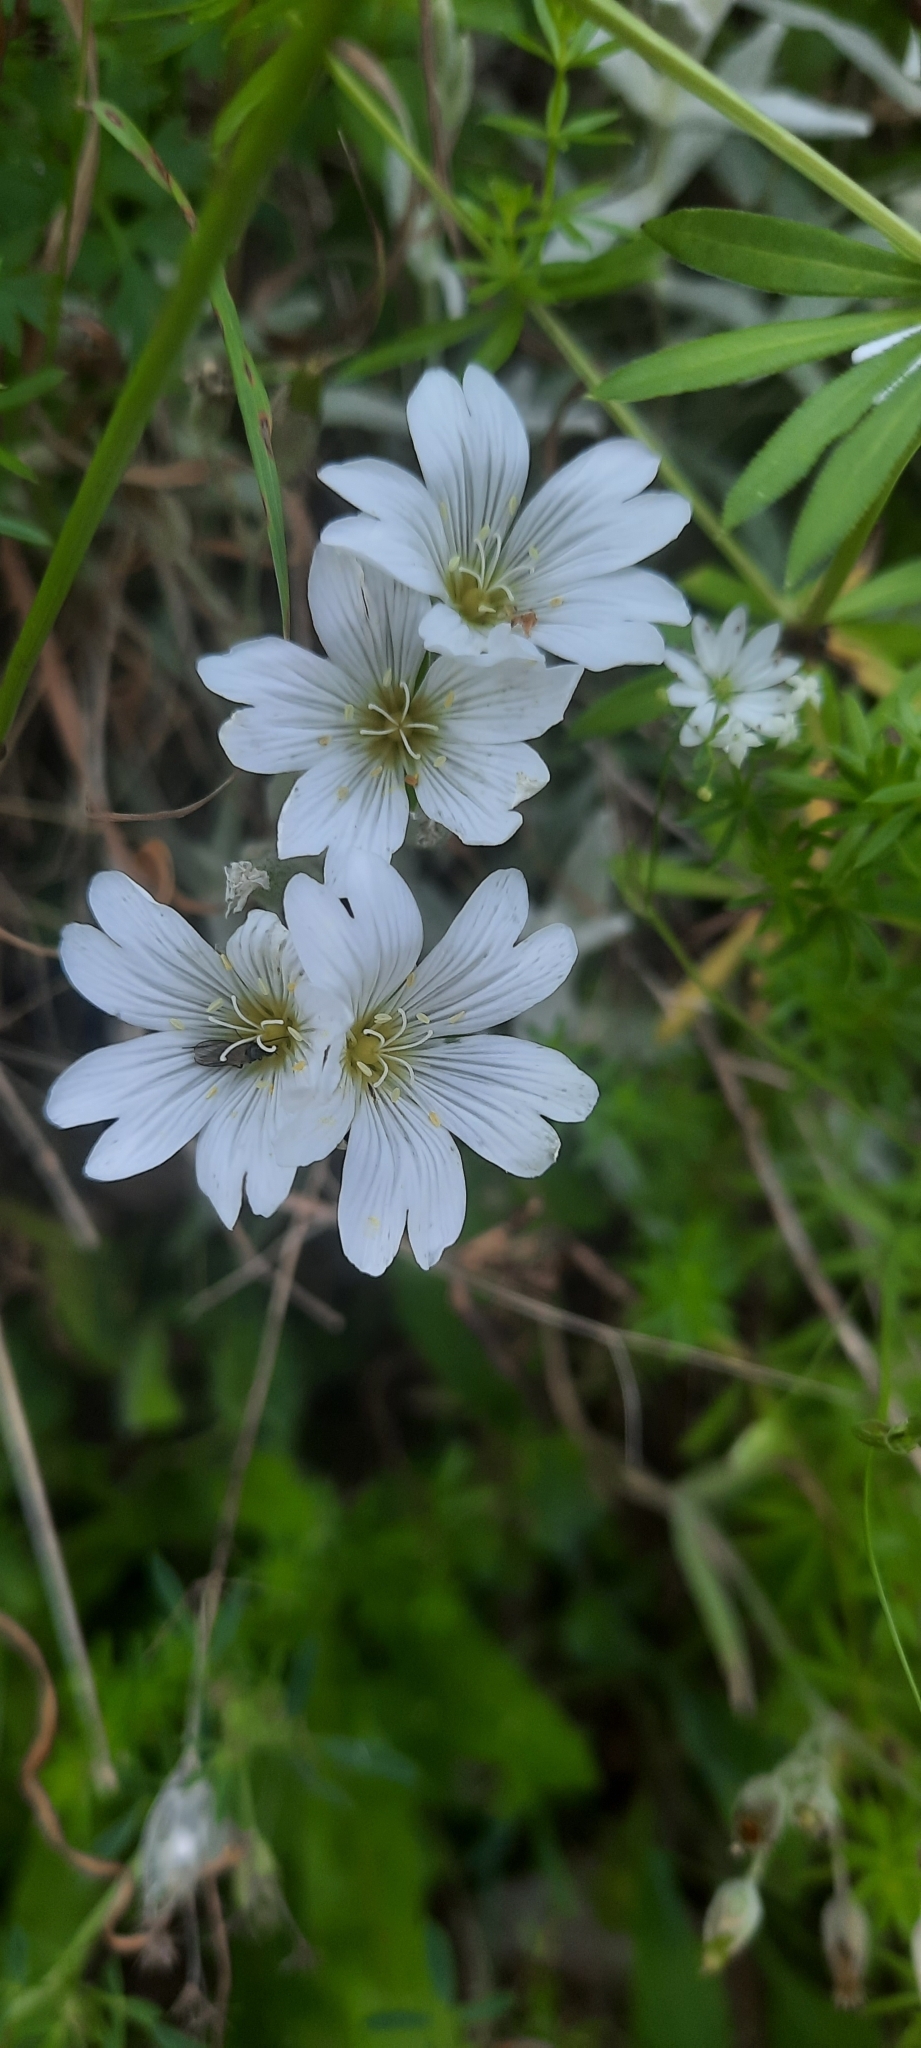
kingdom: Plantae
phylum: Tracheophyta
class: Magnoliopsida
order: Caryophyllales
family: Caryophyllaceae
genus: Cerastium
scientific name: Cerastium biebersteinii
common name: Snow-in-summer
